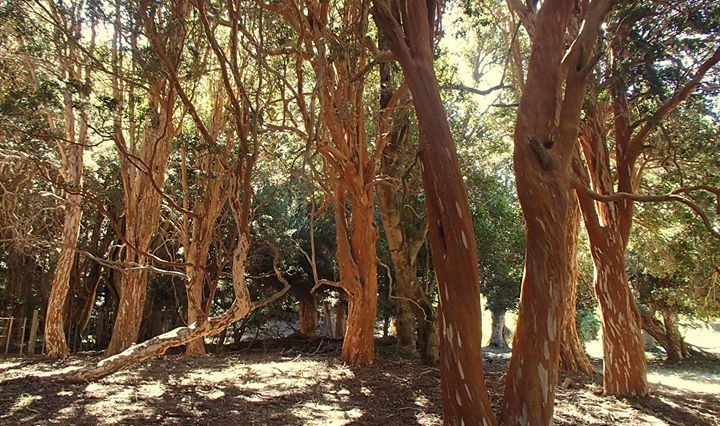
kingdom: Plantae
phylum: Tracheophyta
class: Magnoliopsida
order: Myrtales
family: Myrtaceae
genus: Luma
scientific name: Luma apiculata
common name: Chilean myrtle
